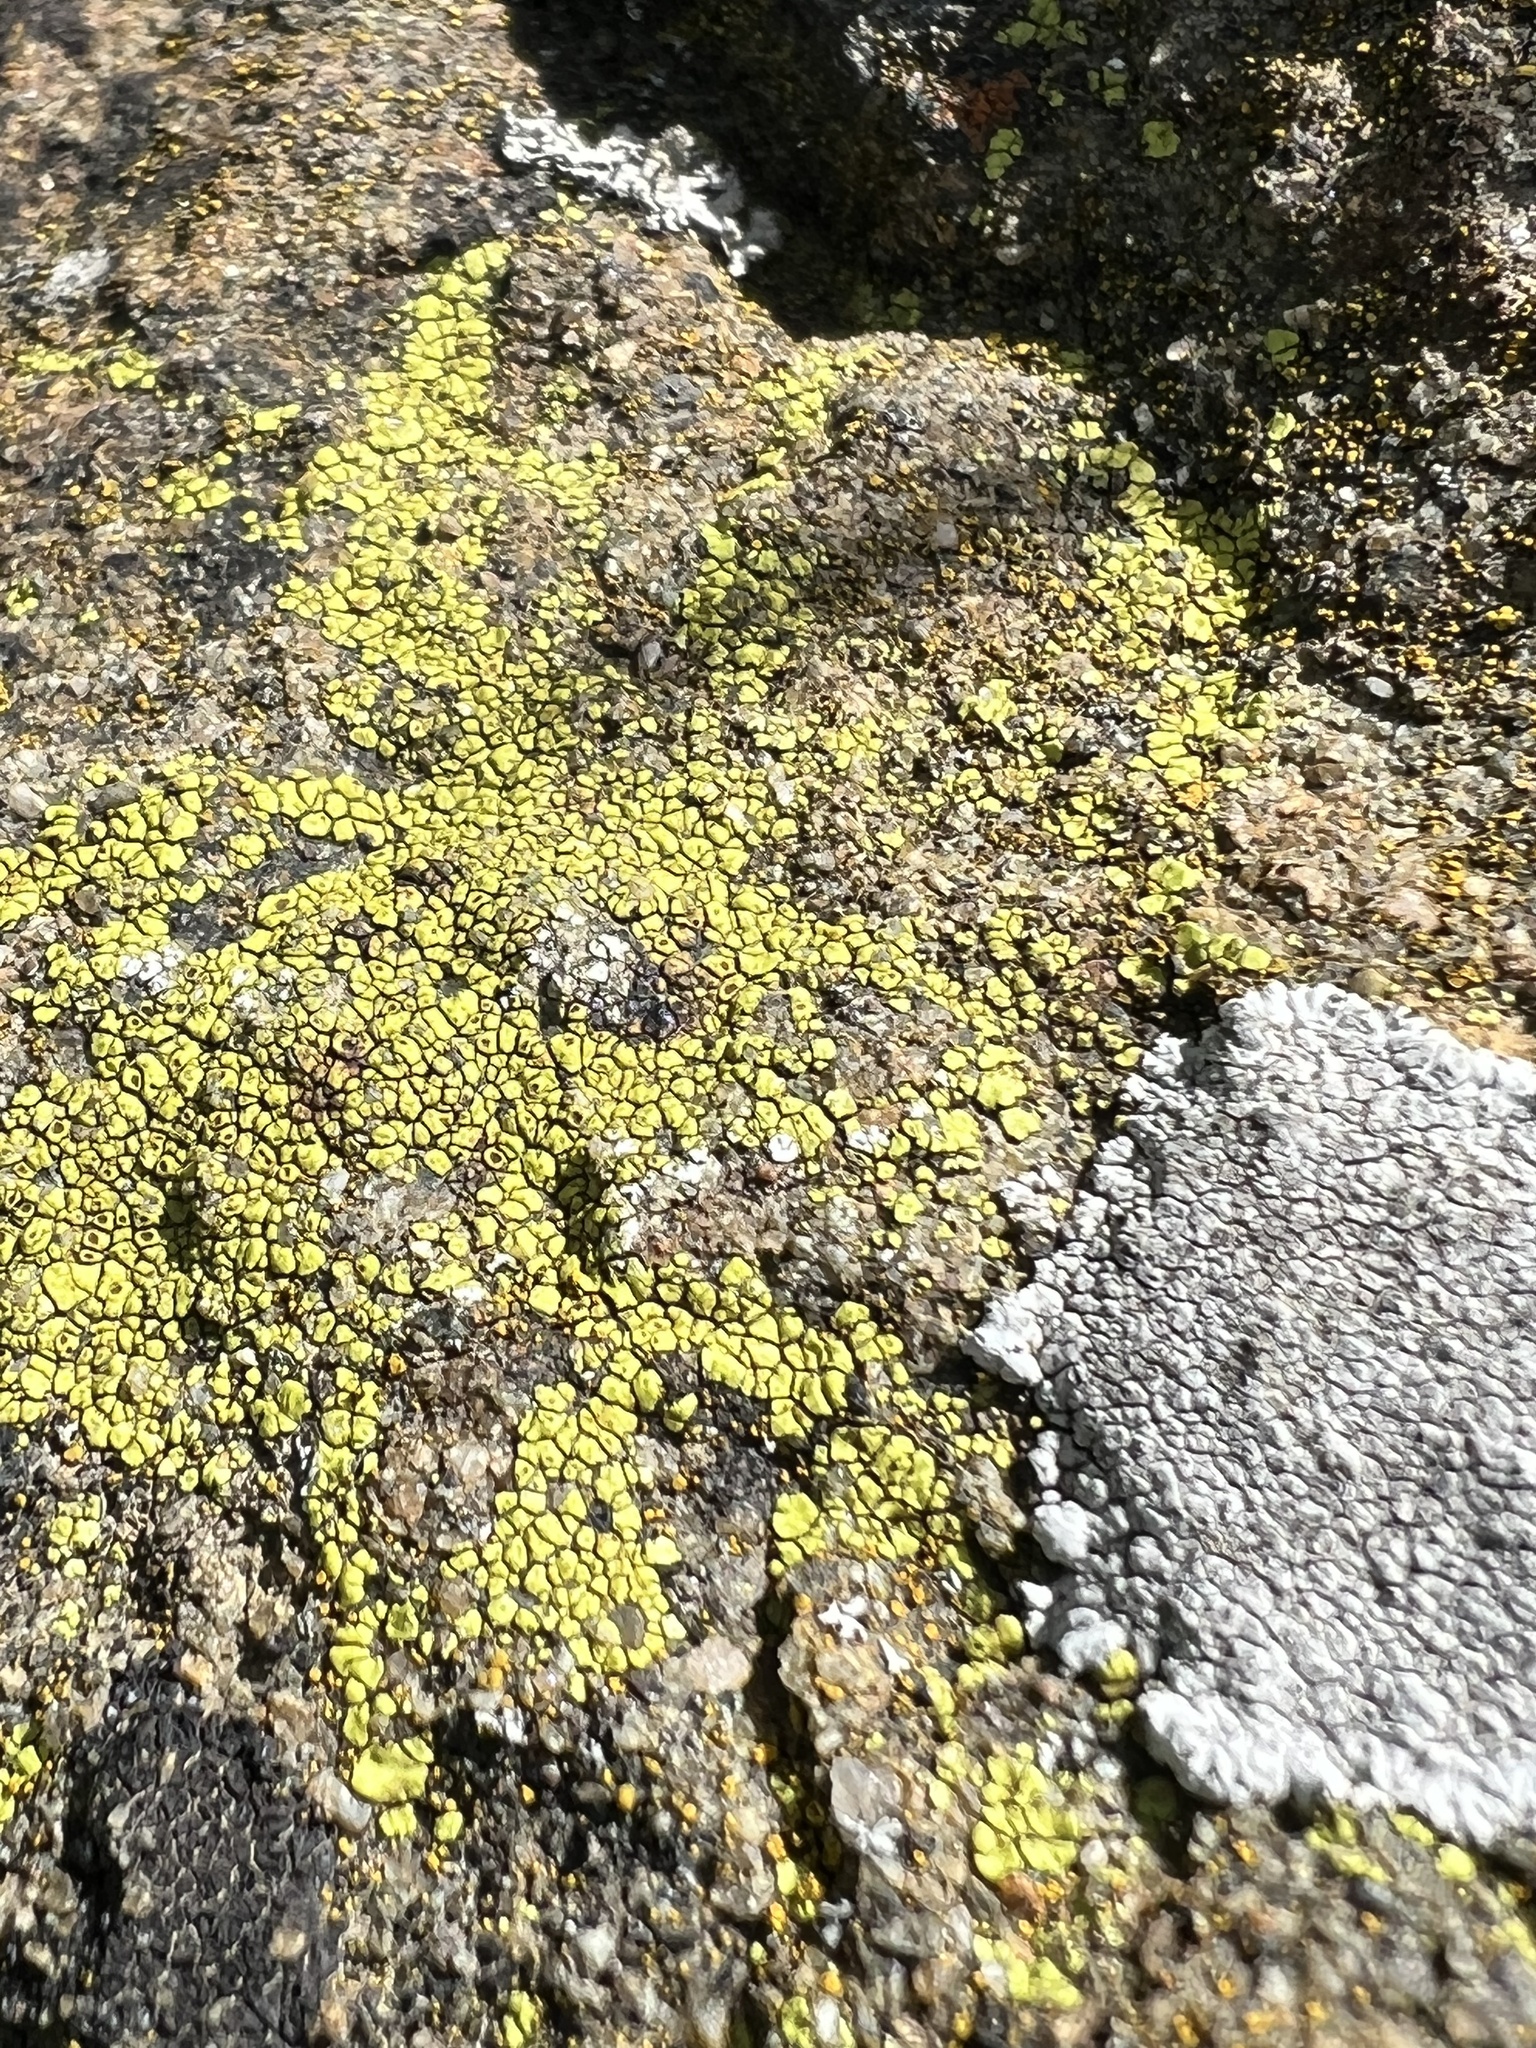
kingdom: Fungi
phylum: Ascomycota
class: Lecanoromycetes
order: Acarosporales
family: Acarosporaceae
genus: Acarospora
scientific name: Acarospora socialis
